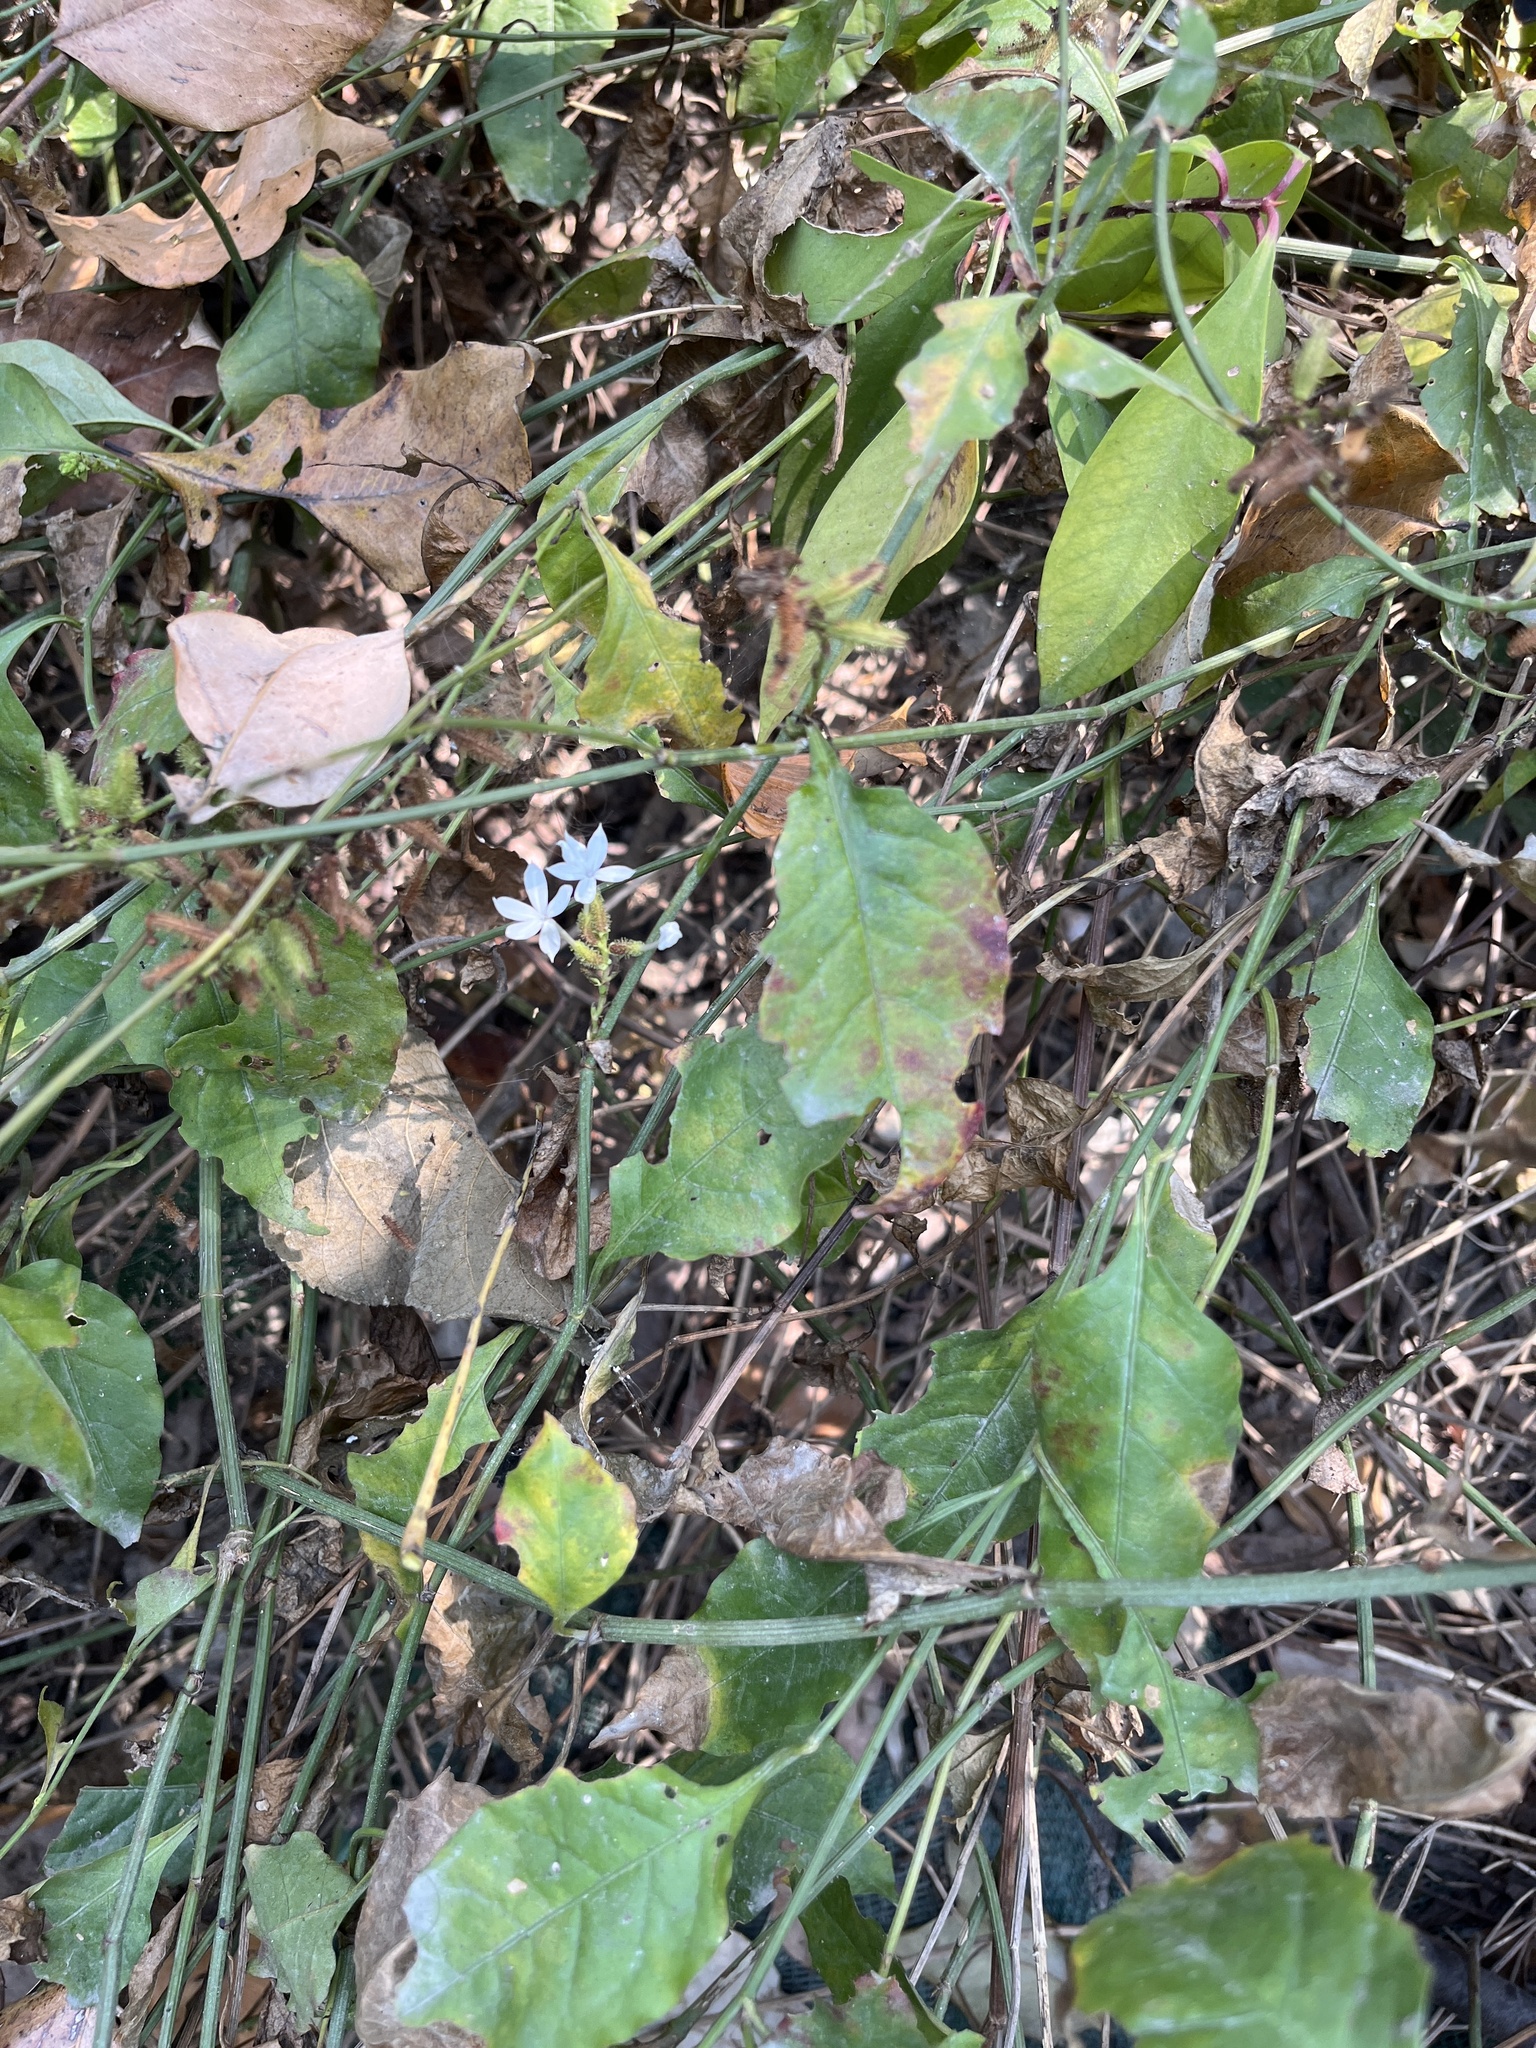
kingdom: Plantae
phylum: Tracheophyta
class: Magnoliopsida
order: Caryophyllales
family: Plumbaginaceae
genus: Plumbago
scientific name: Plumbago zeylanica
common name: Doctorbush
